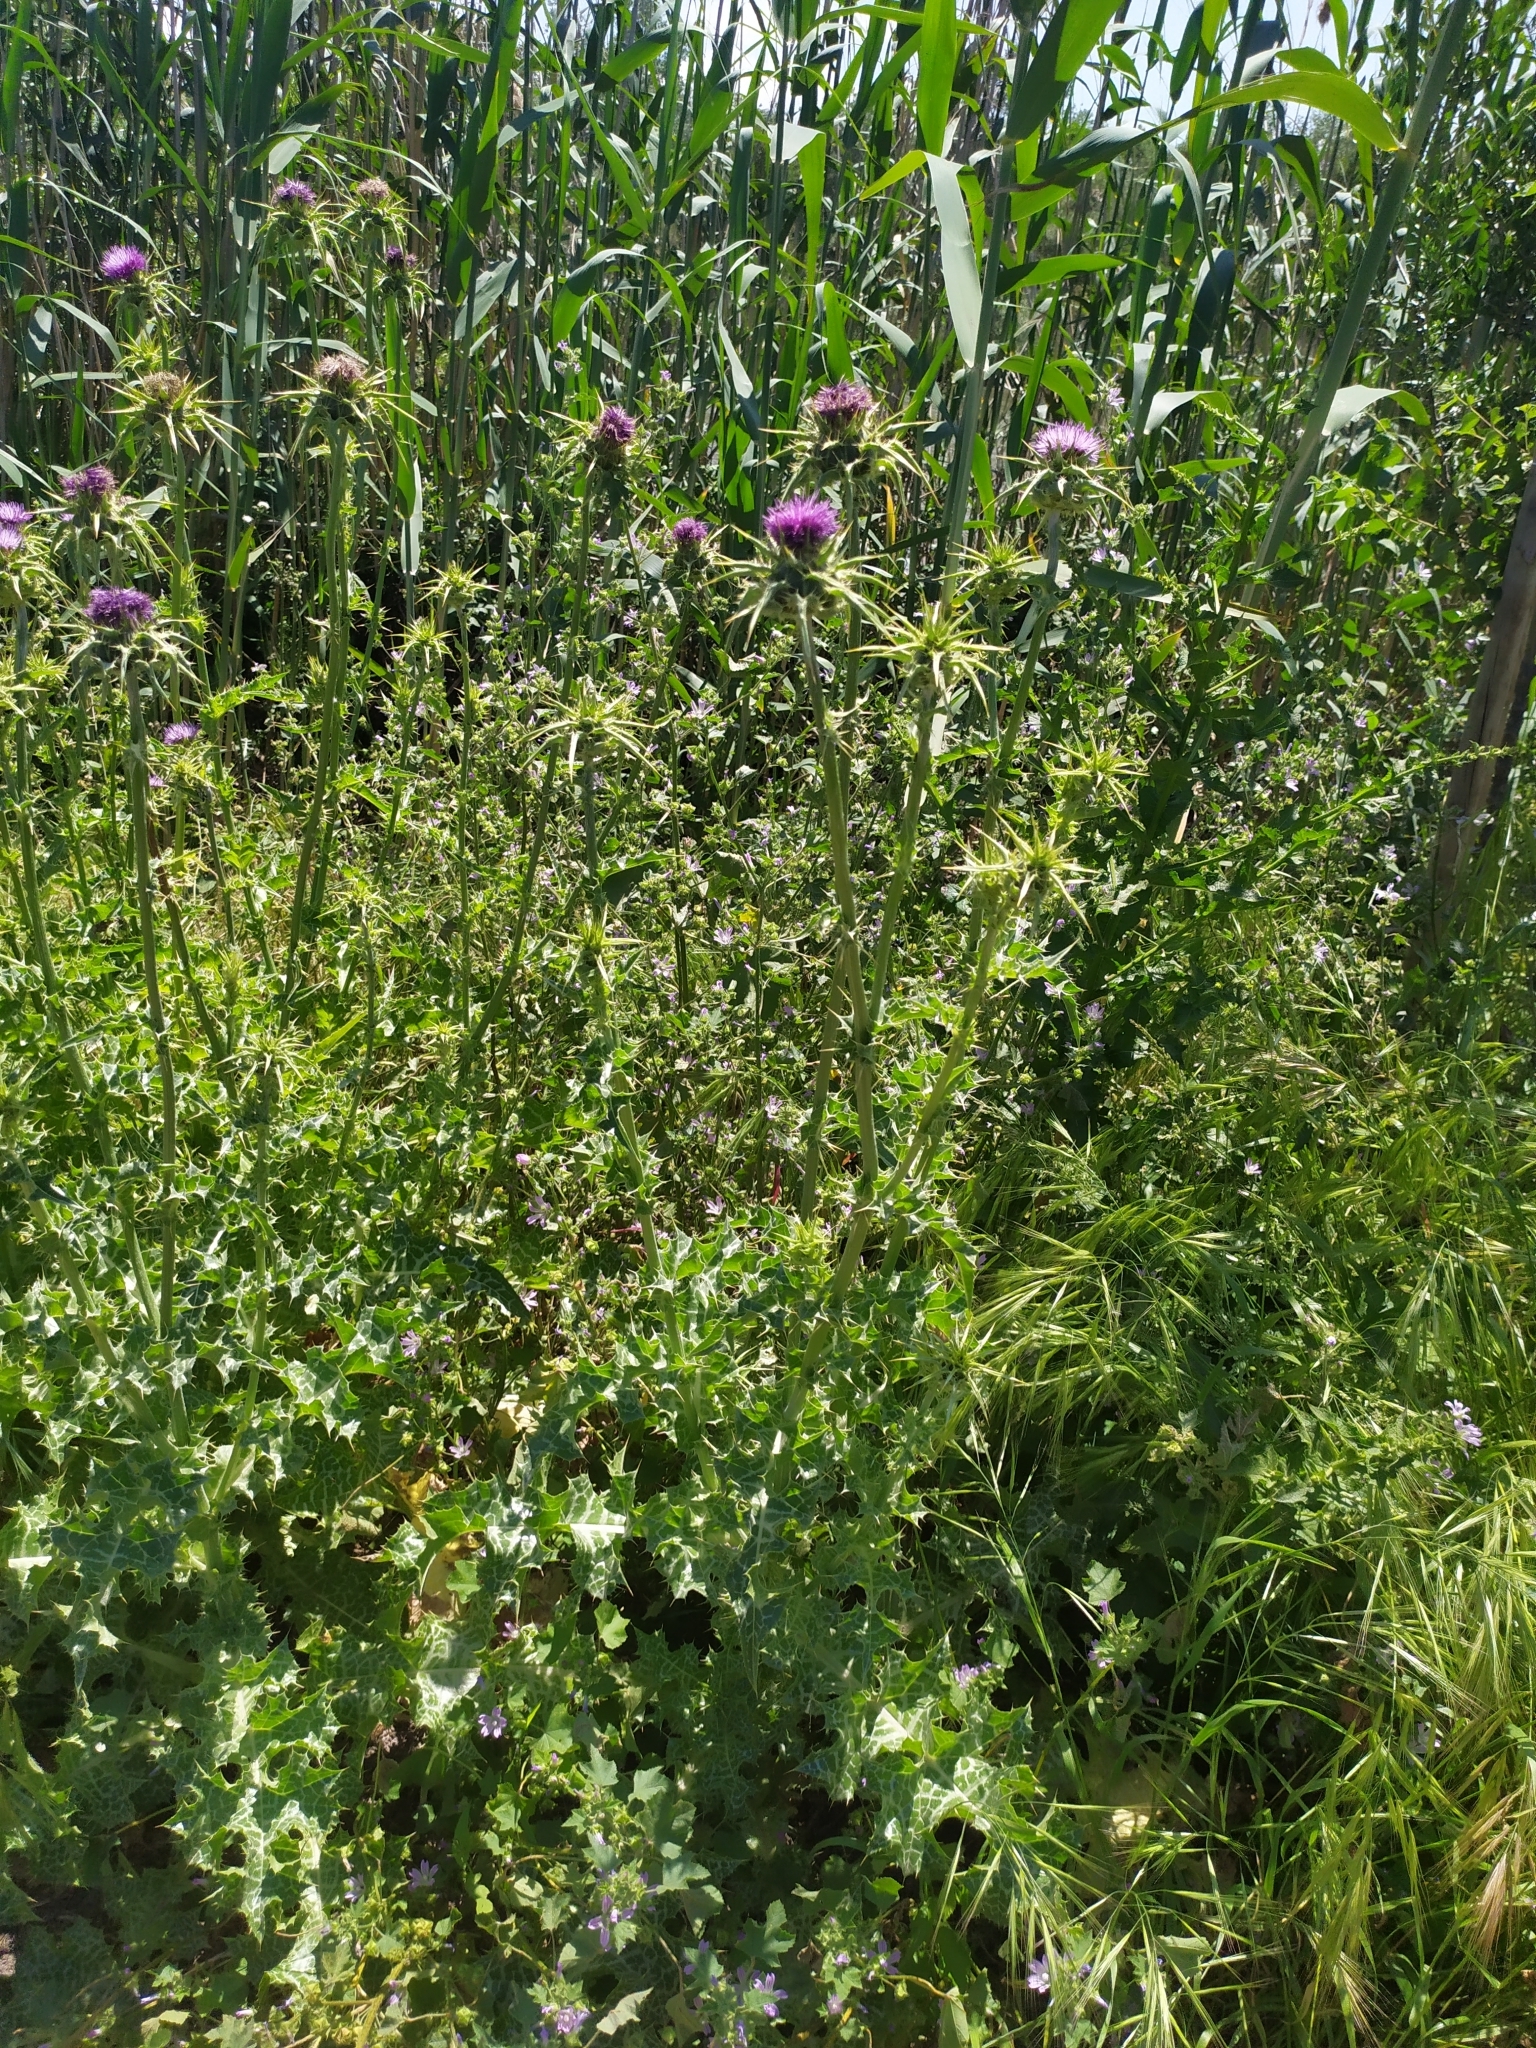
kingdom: Plantae
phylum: Tracheophyta
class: Magnoliopsida
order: Asterales
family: Asteraceae
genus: Silybum
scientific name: Silybum marianum
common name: Milk thistle
